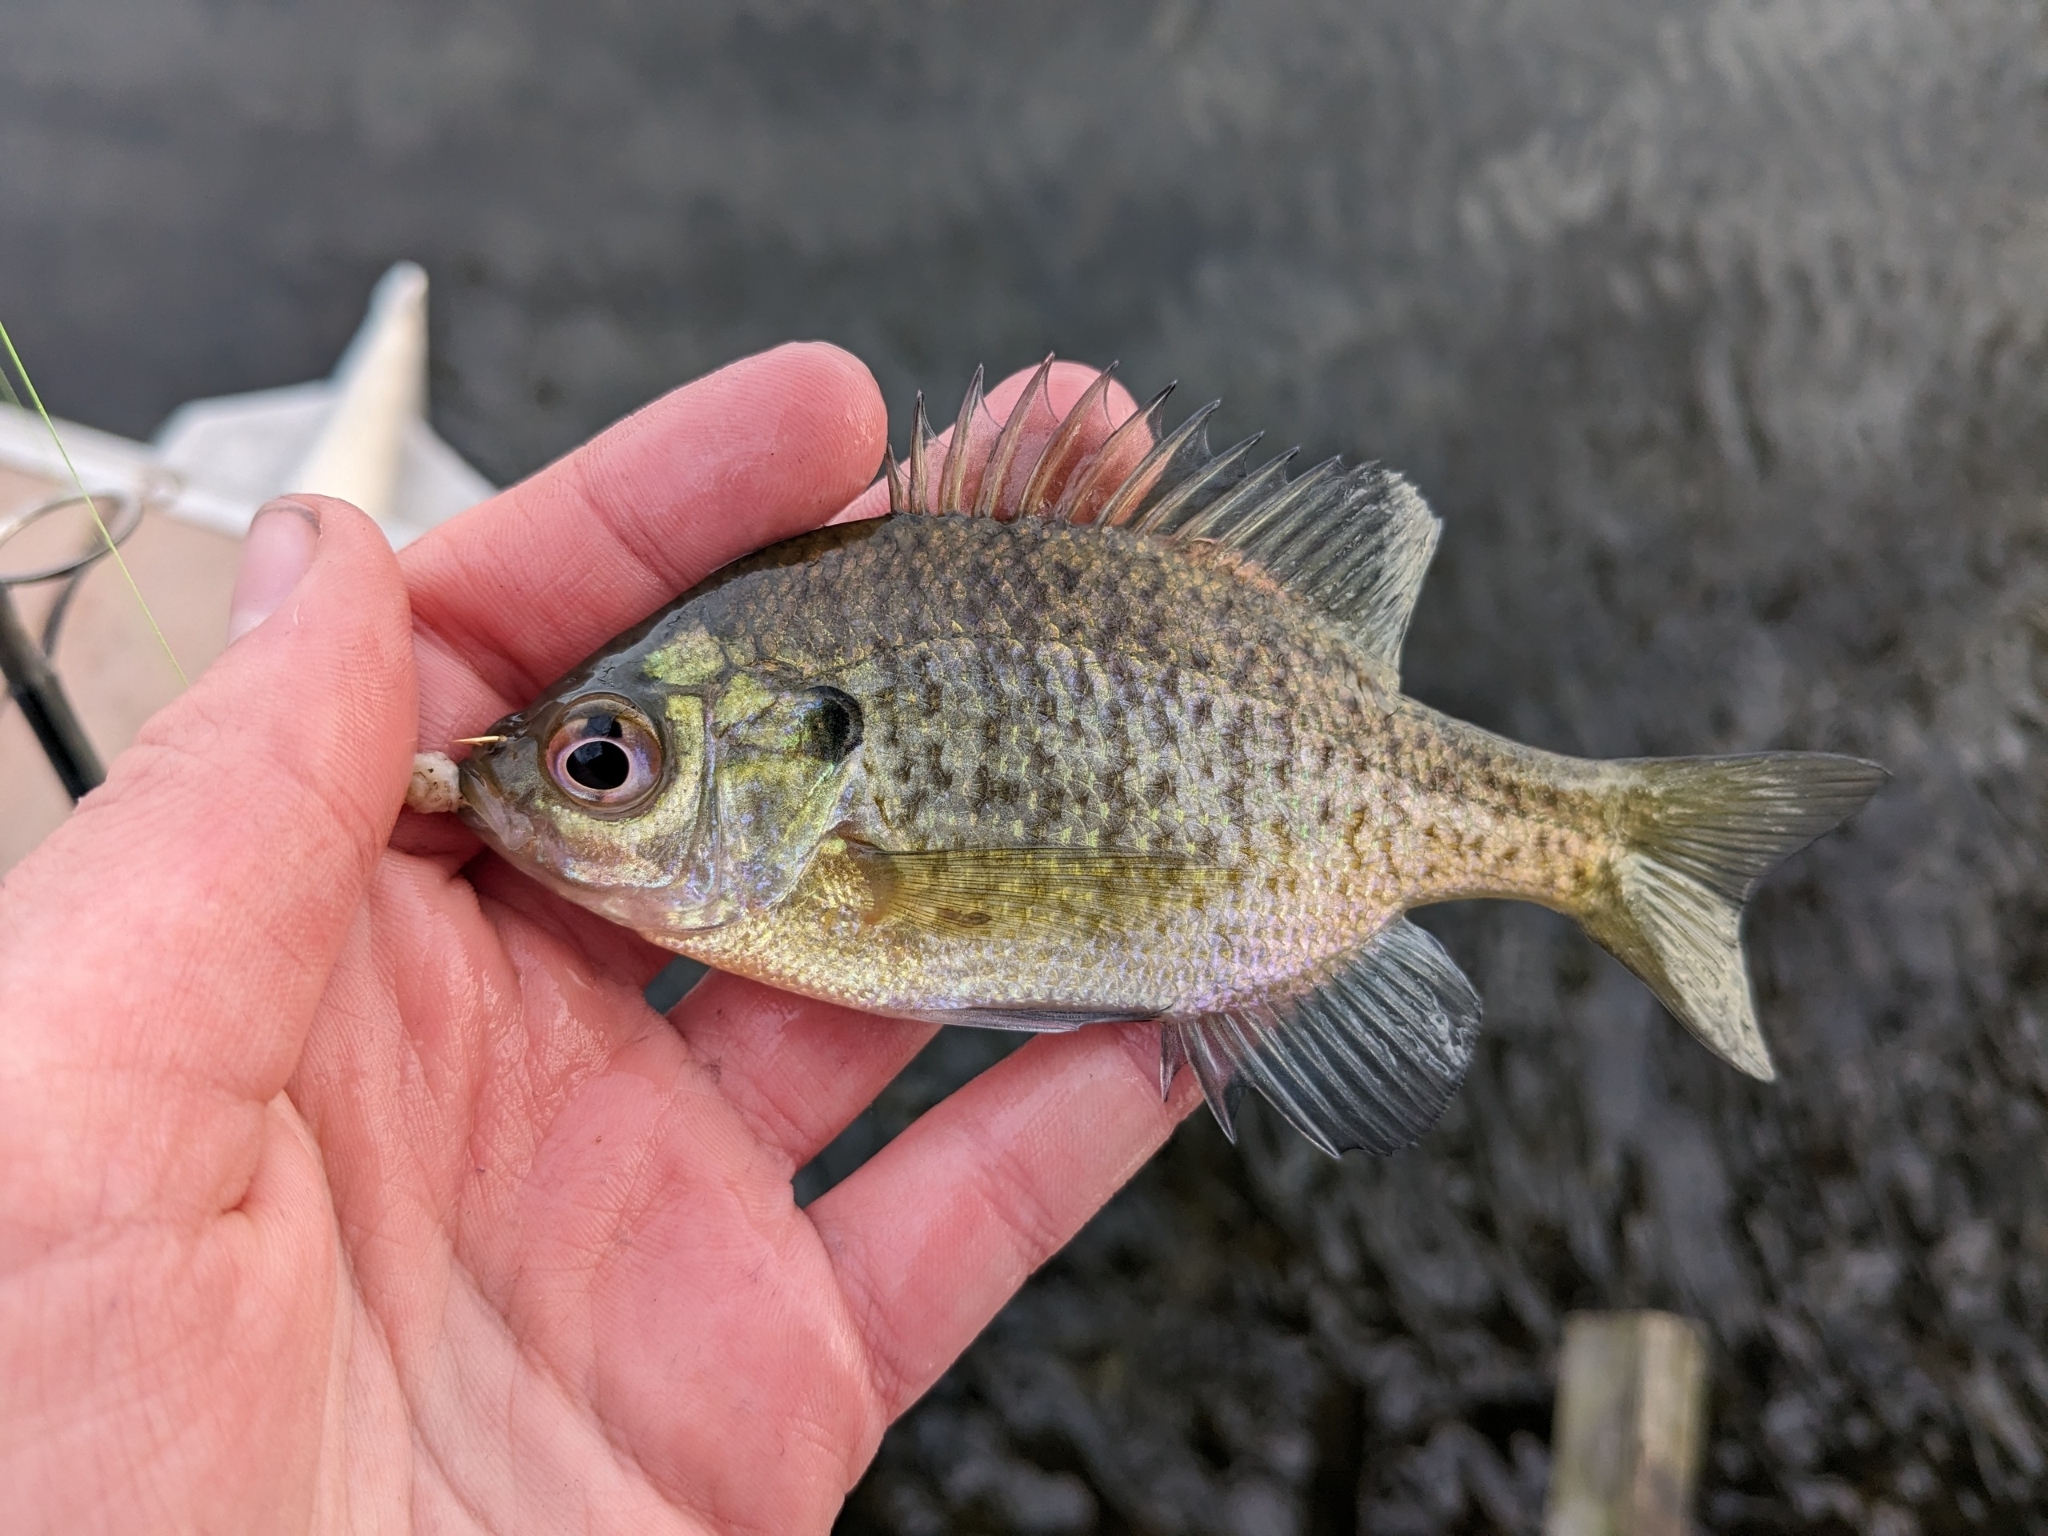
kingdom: Animalia
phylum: Chordata
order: Perciformes
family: Centrarchidae
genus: Lepomis
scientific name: Lepomis macrochirus
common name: Bluegill
